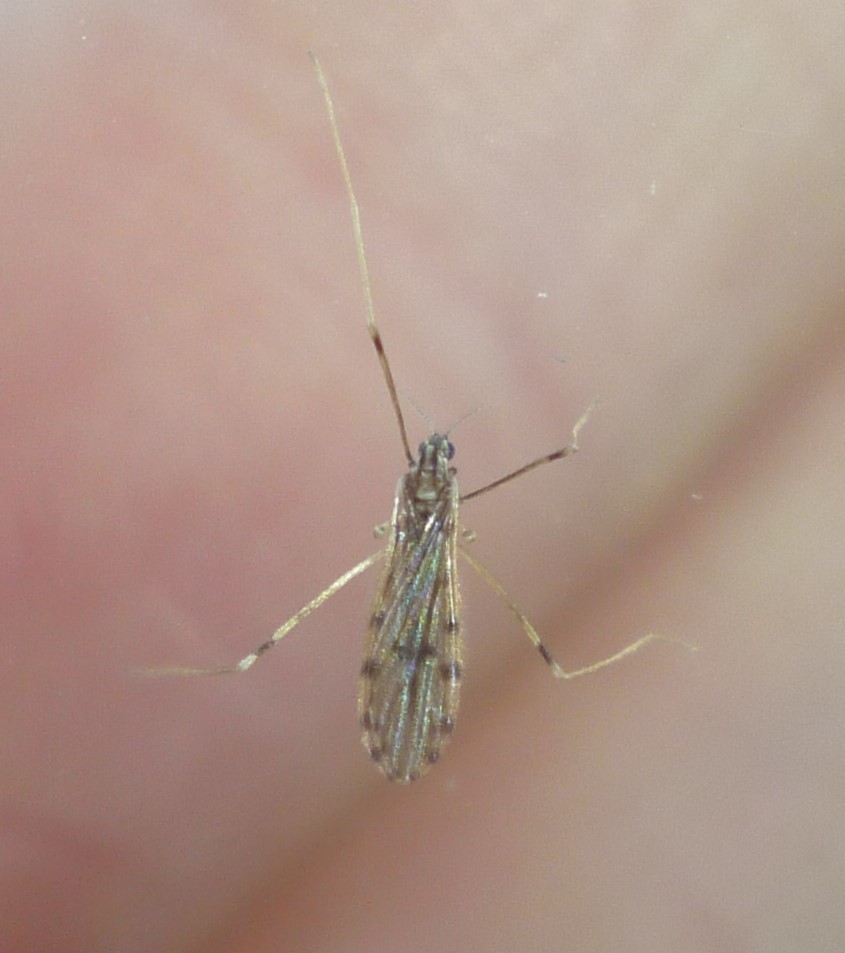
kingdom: Animalia
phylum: Arthropoda
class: Insecta
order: Diptera
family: Limoniidae
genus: Erioptera
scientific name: Erioptera parva
